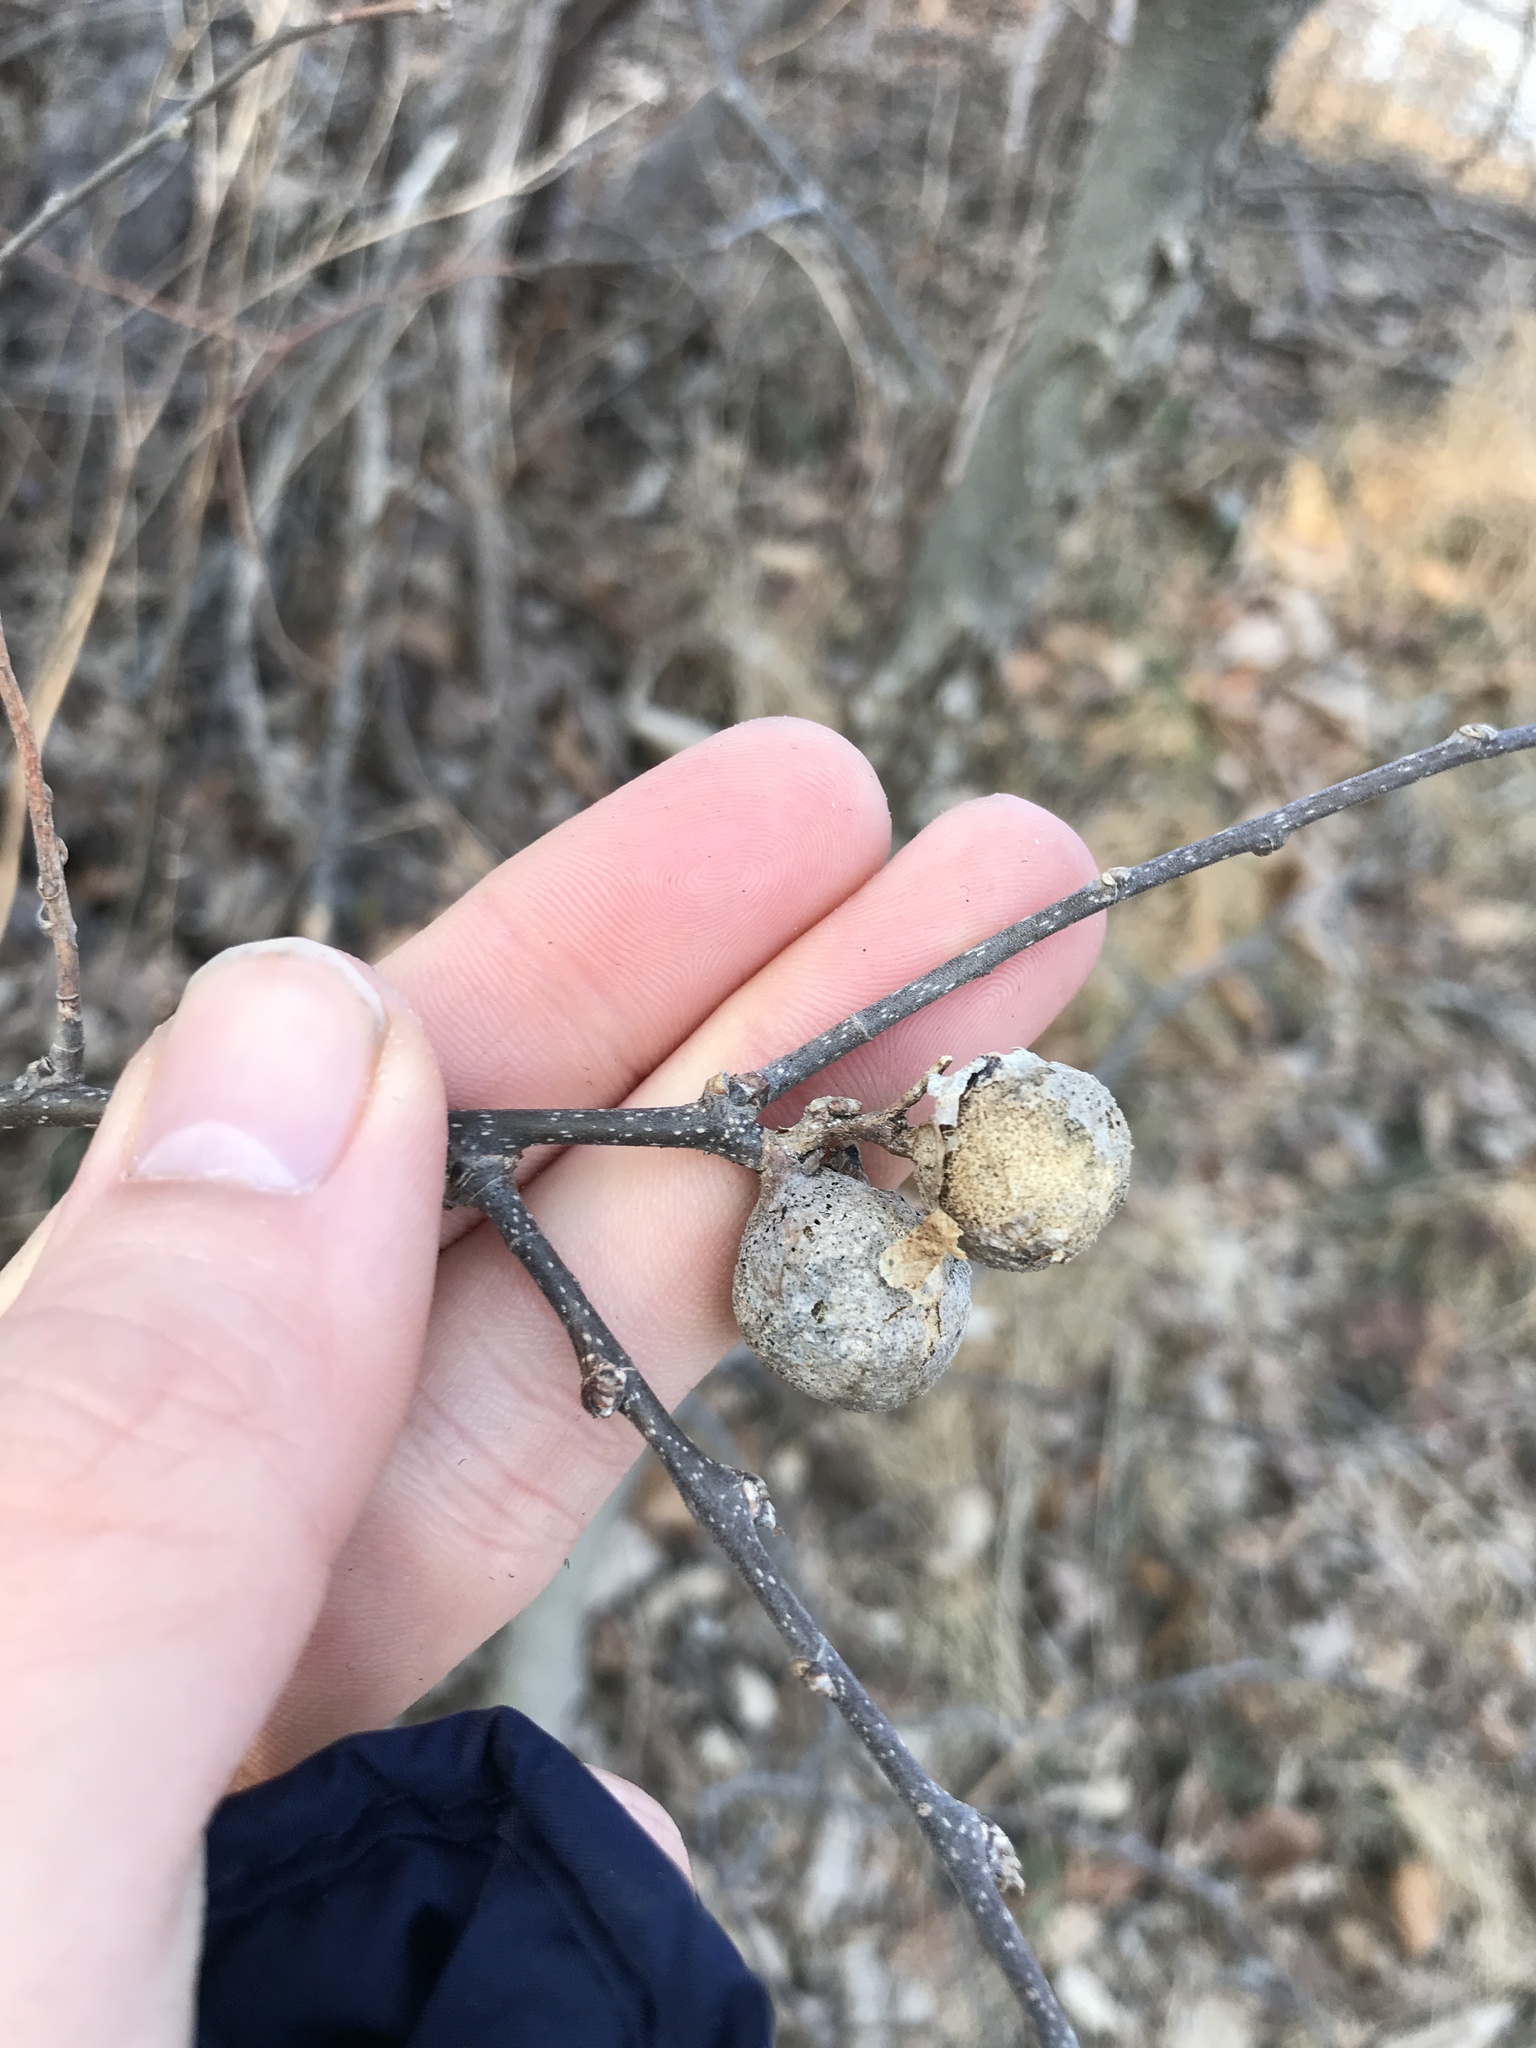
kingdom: Animalia
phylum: Arthropoda
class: Insecta
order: Hemiptera
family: Aphalaridae
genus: Pachypsylla
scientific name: Pachypsylla venusta
